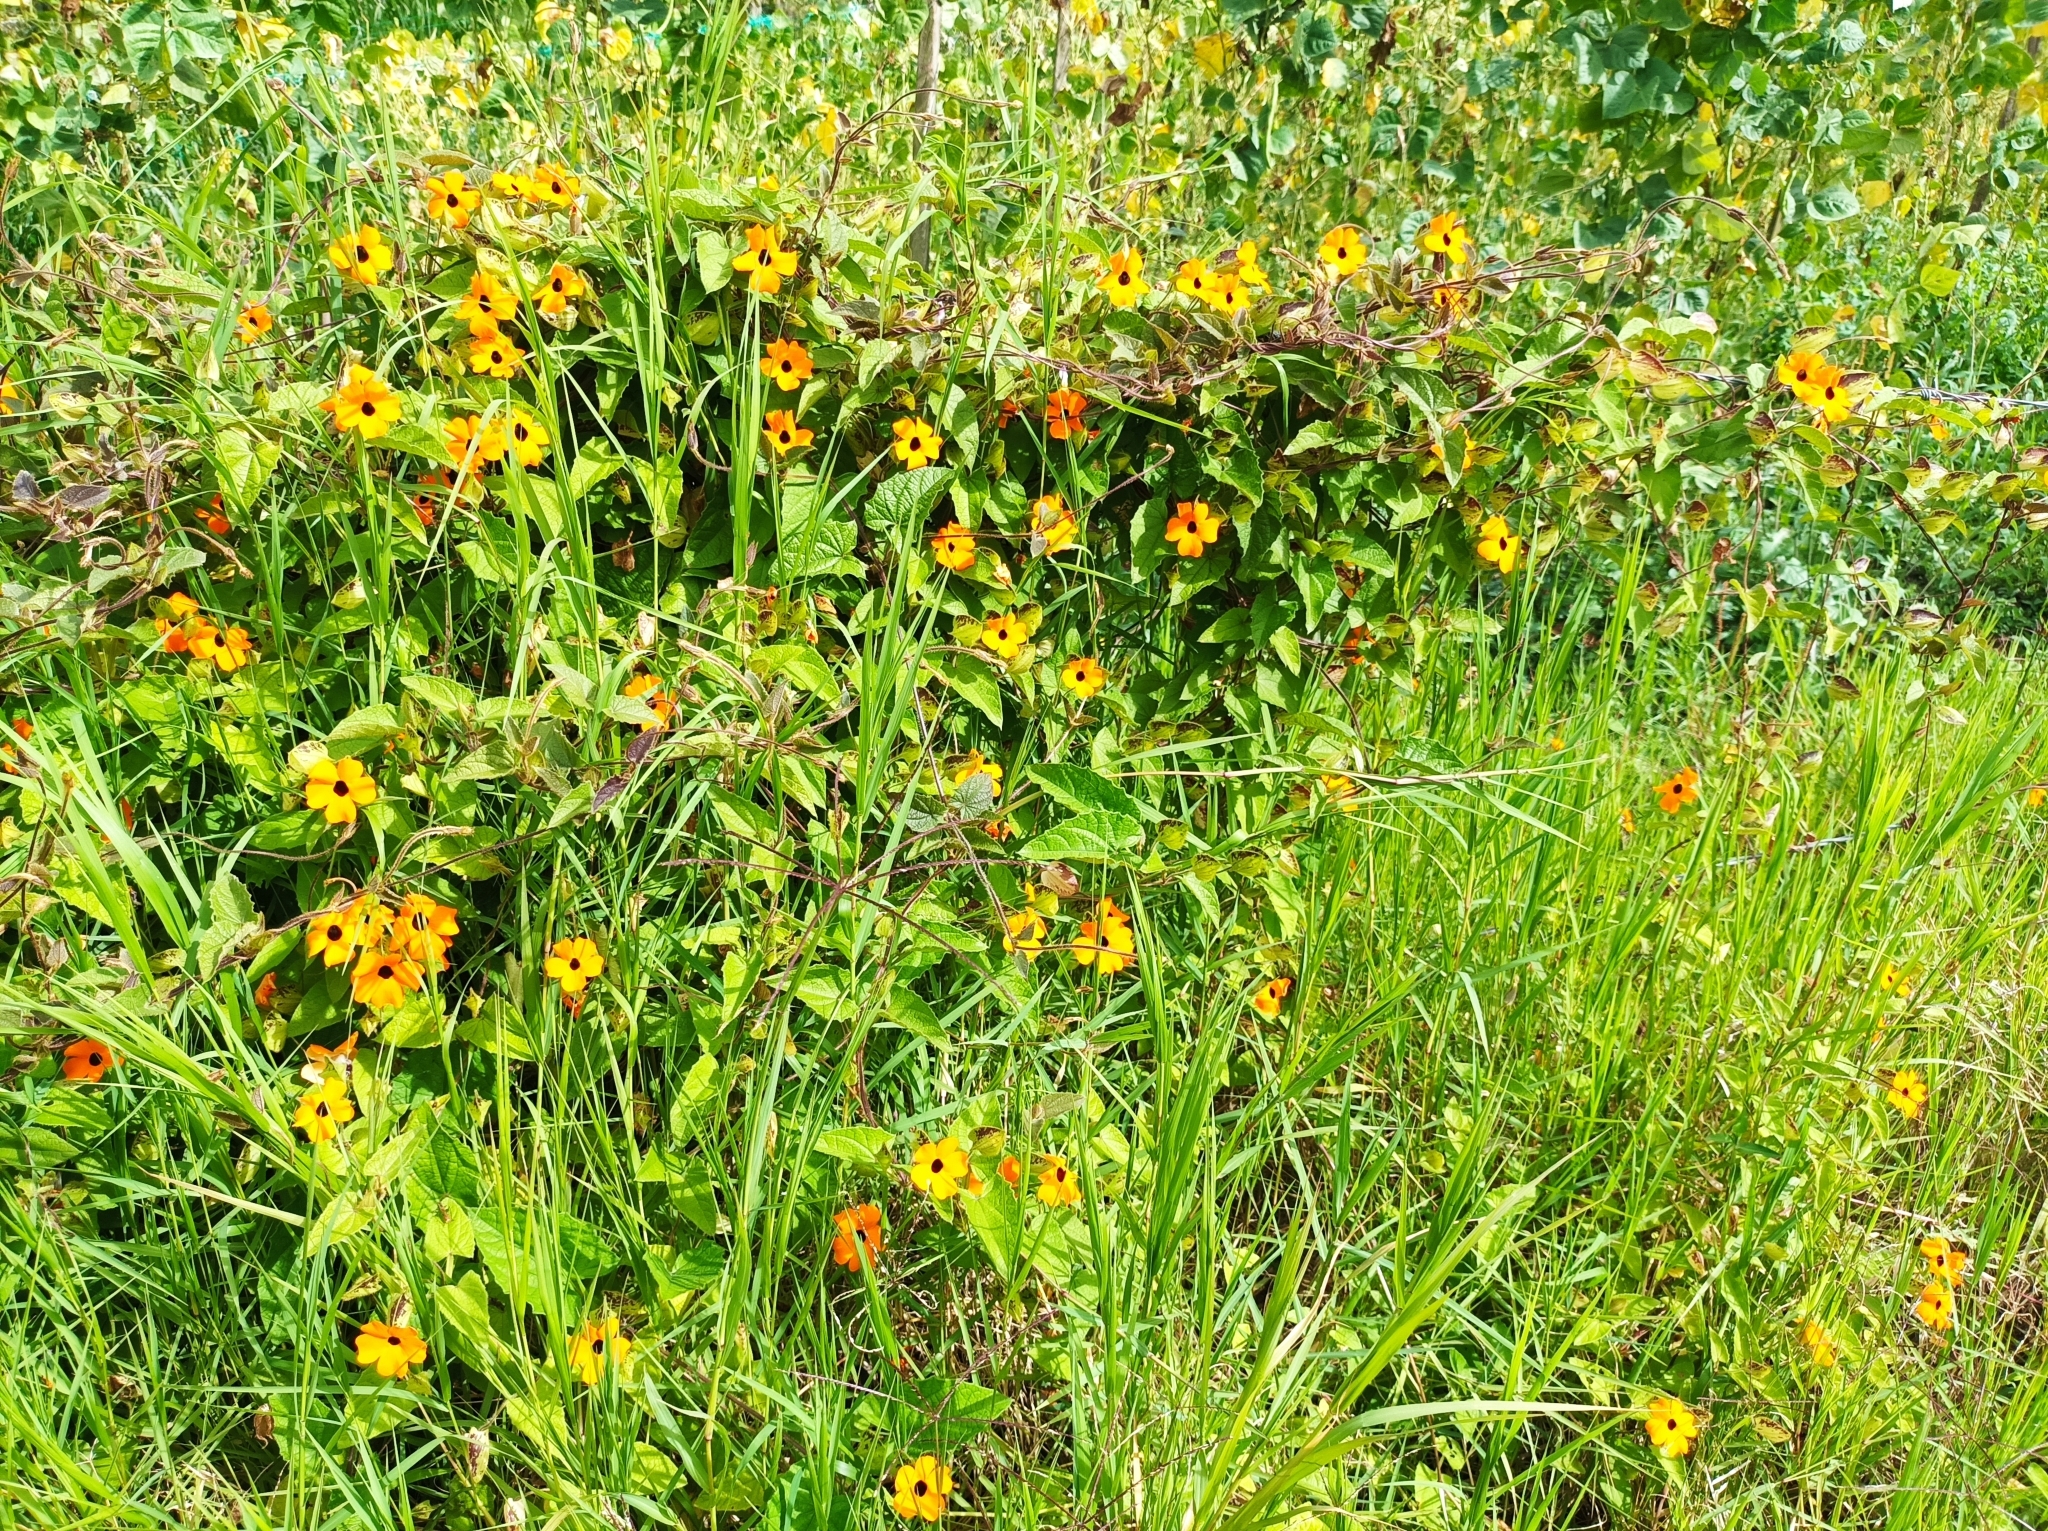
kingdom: Plantae
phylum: Tracheophyta
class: Magnoliopsida
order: Lamiales
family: Acanthaceae
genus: Thunbergia
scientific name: Thunbergia alata
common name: Blackeyed susan vine
